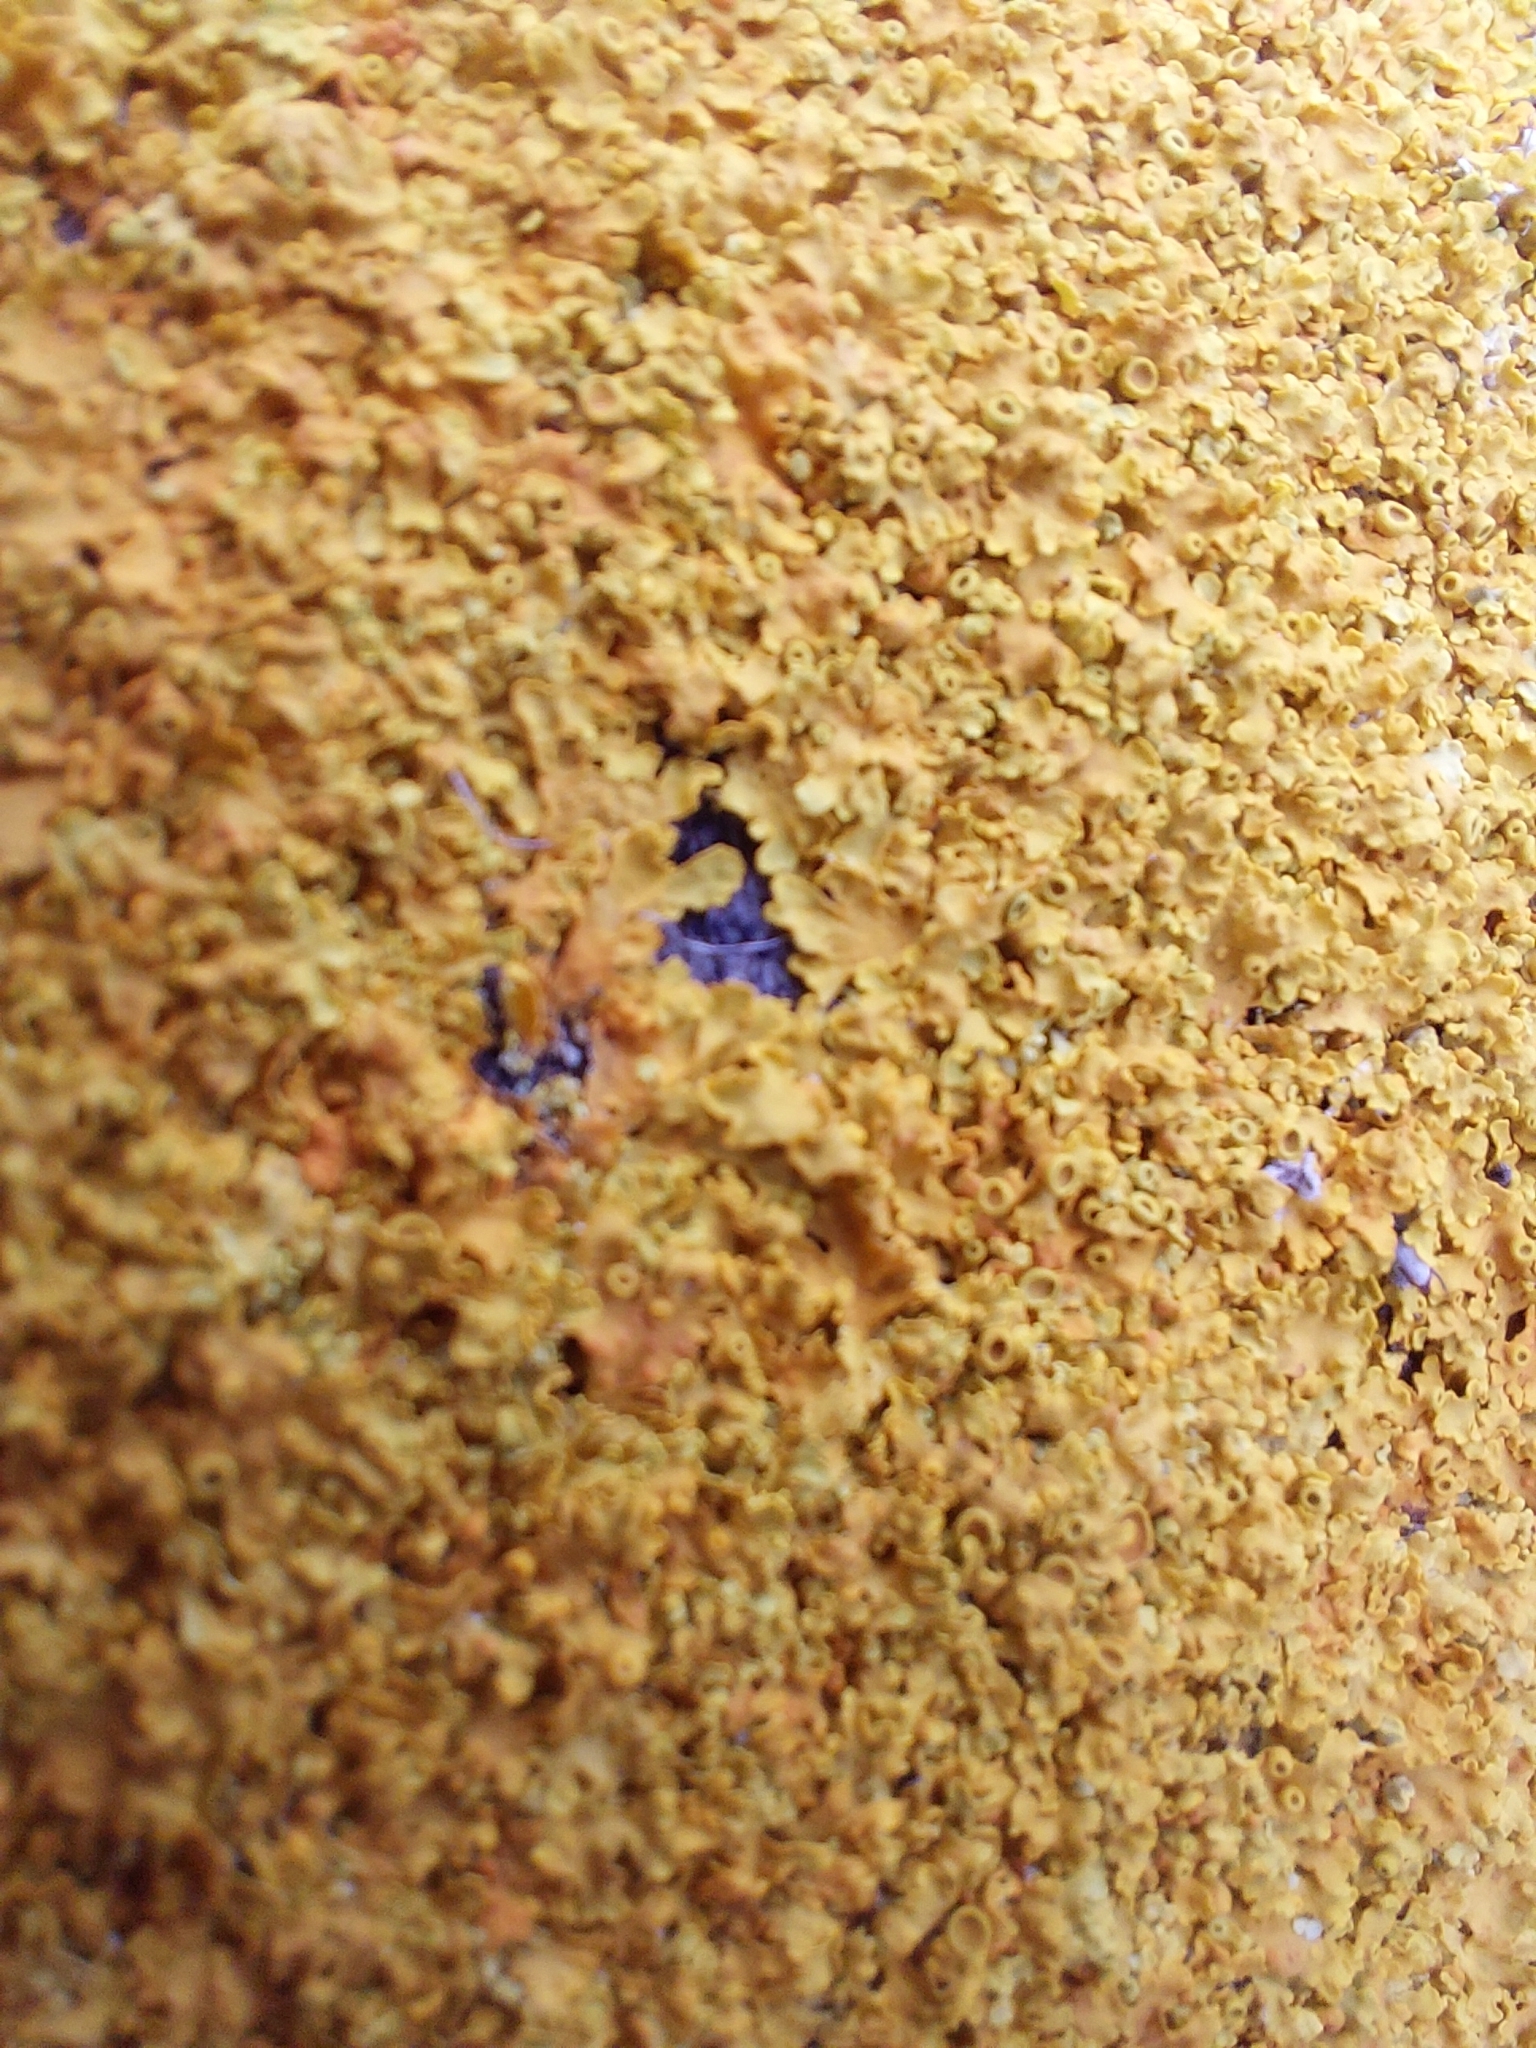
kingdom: Fungi
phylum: Ascomycota
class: Lecanoromycetes
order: Teloschistales
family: Teloschistaceae
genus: Xanthoria
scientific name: Xanthoria parietina
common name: Common orange lichen
